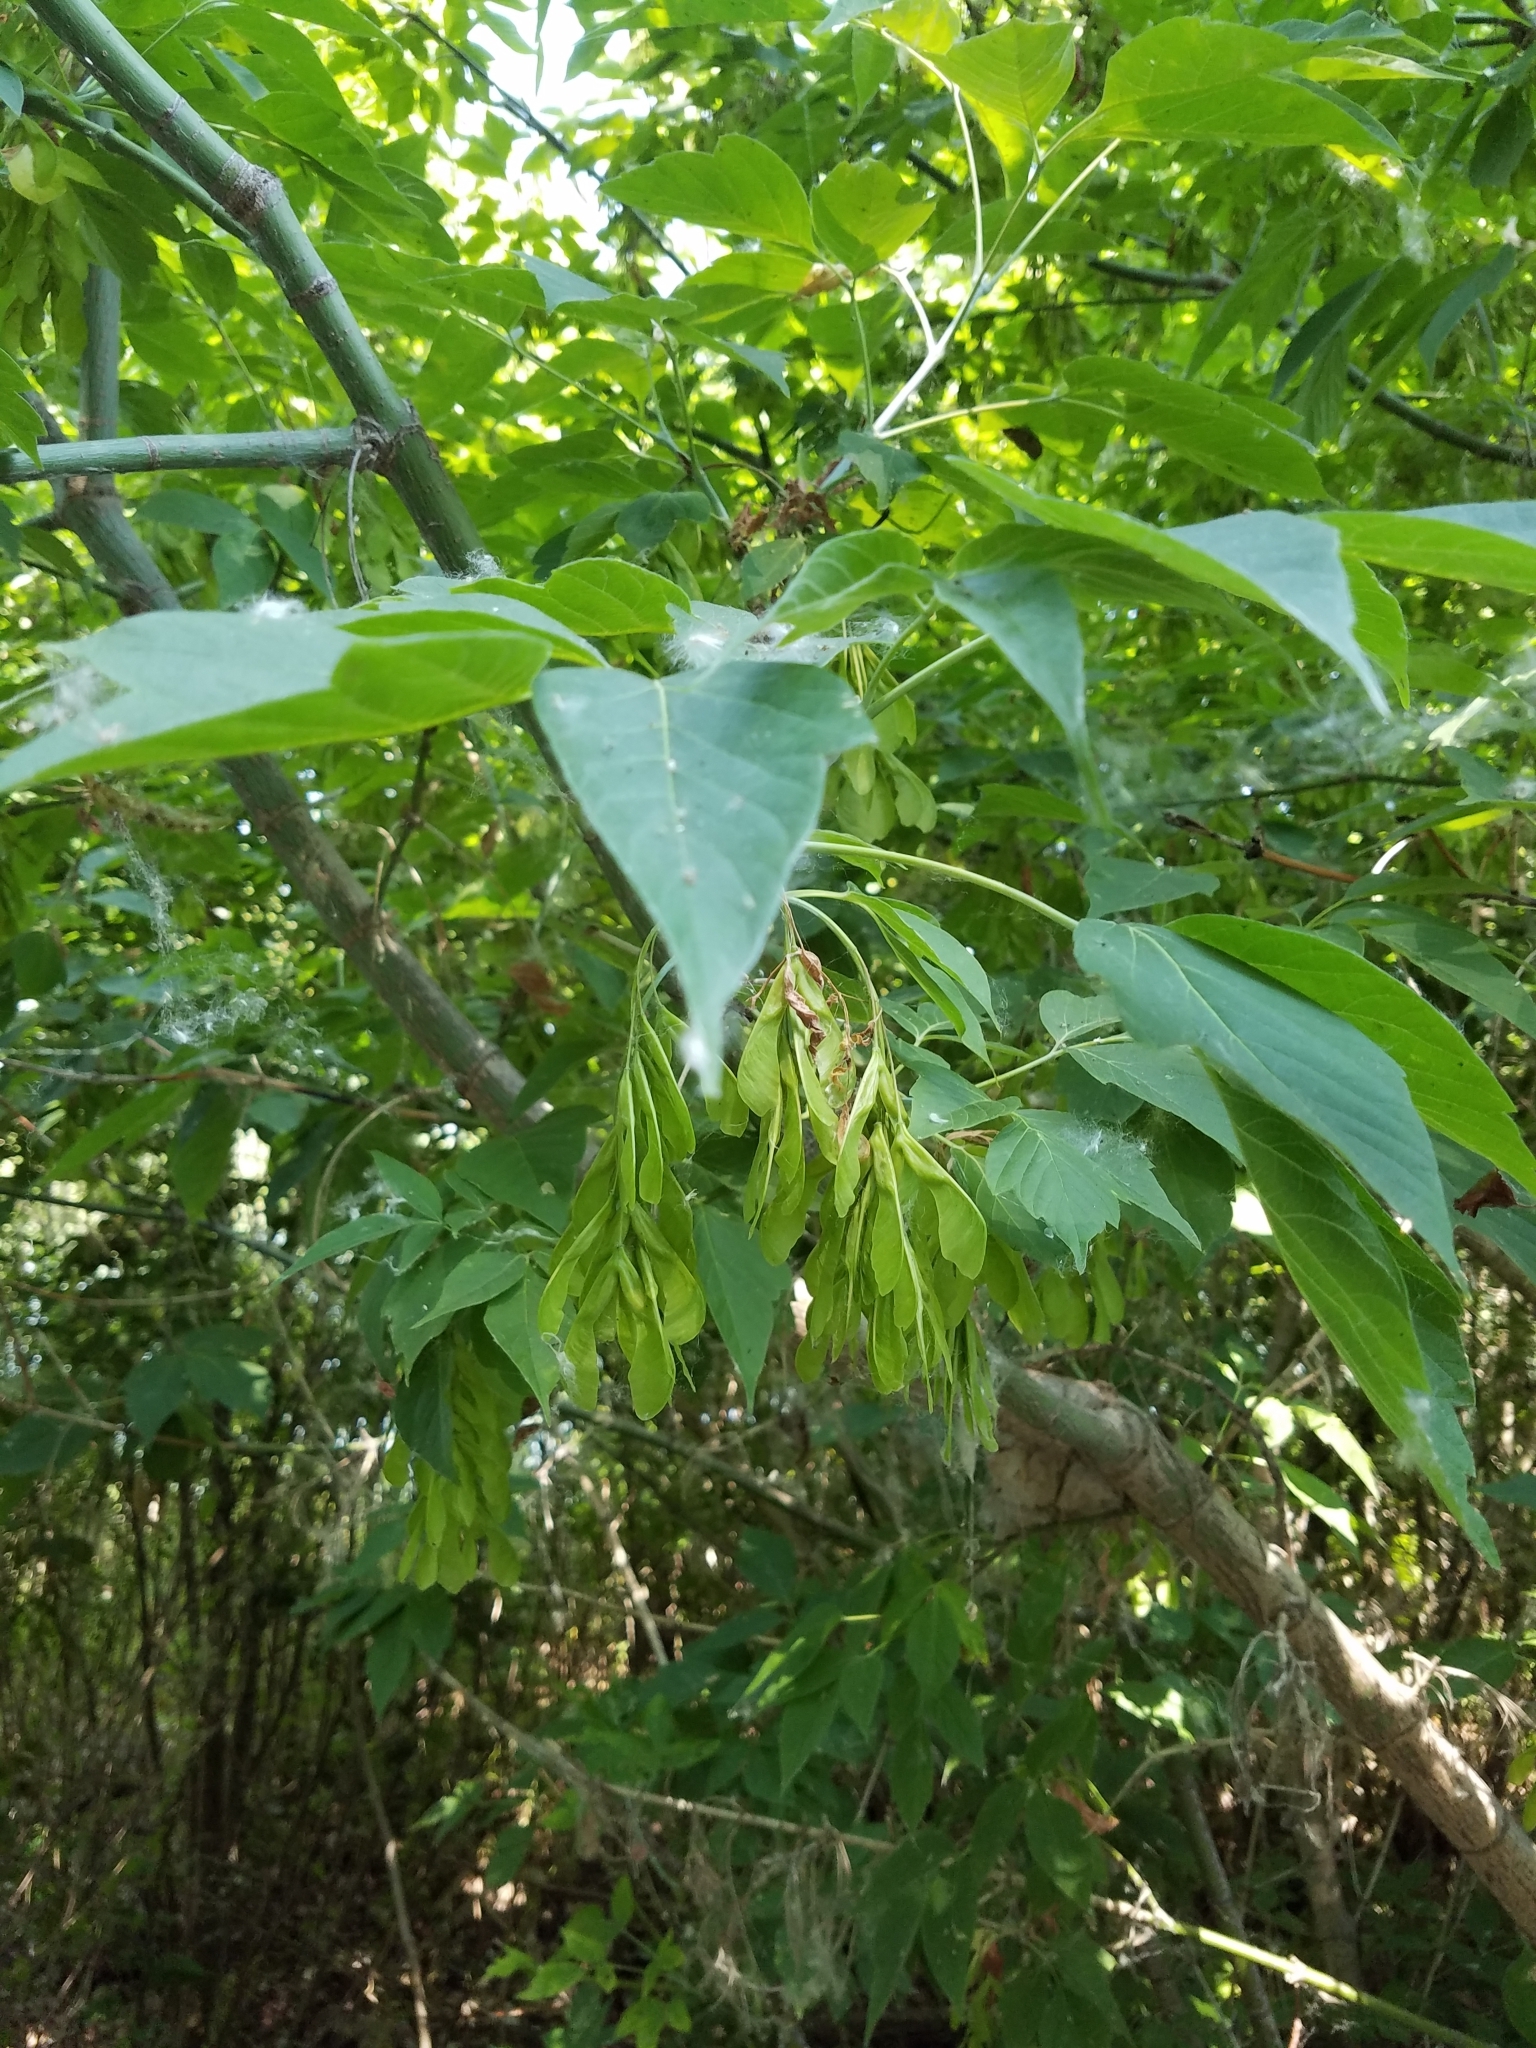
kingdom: Plantae
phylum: Tracheophyta
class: Magnoliopsida
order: Sapindales
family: Sapindaceae
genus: Acer
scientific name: Acer negundo
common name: Ashleaf maple
